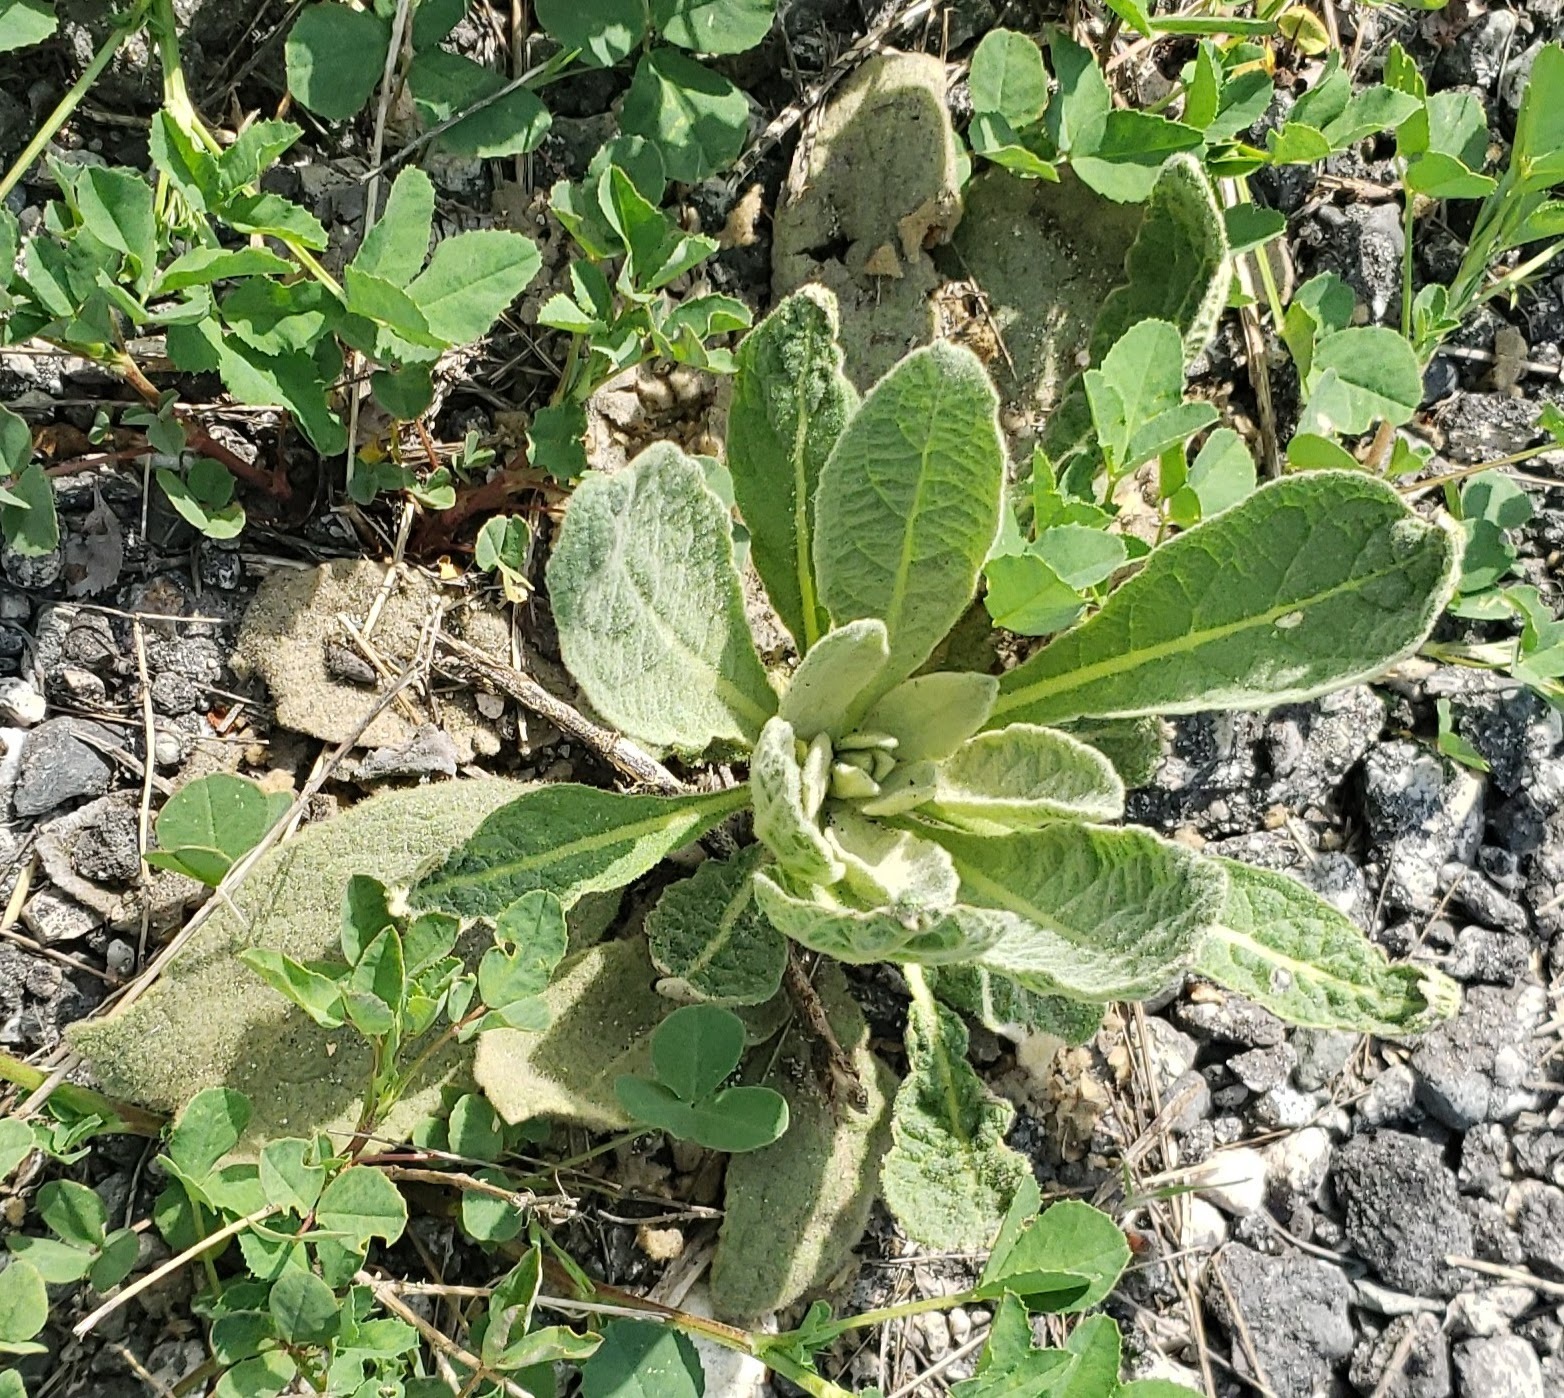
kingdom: Plantae
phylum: Tracheophyta
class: Magnoliopsida
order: Lamiales
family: Scrophulariaceae
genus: Verbascum
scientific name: Verbascum thapsus
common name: Common mullein
